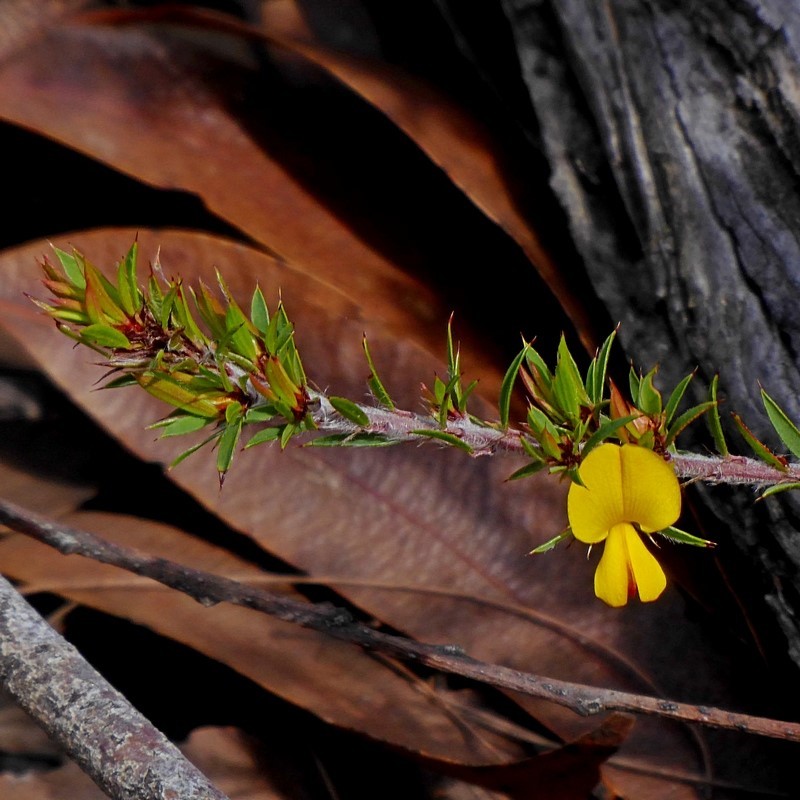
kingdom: Plantae
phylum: Tracheophyta
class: Magnoliopsida
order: Fabales
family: Fabaceae
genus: Pultenaea
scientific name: Pultenaea villifera
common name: Yellow bush-pea
